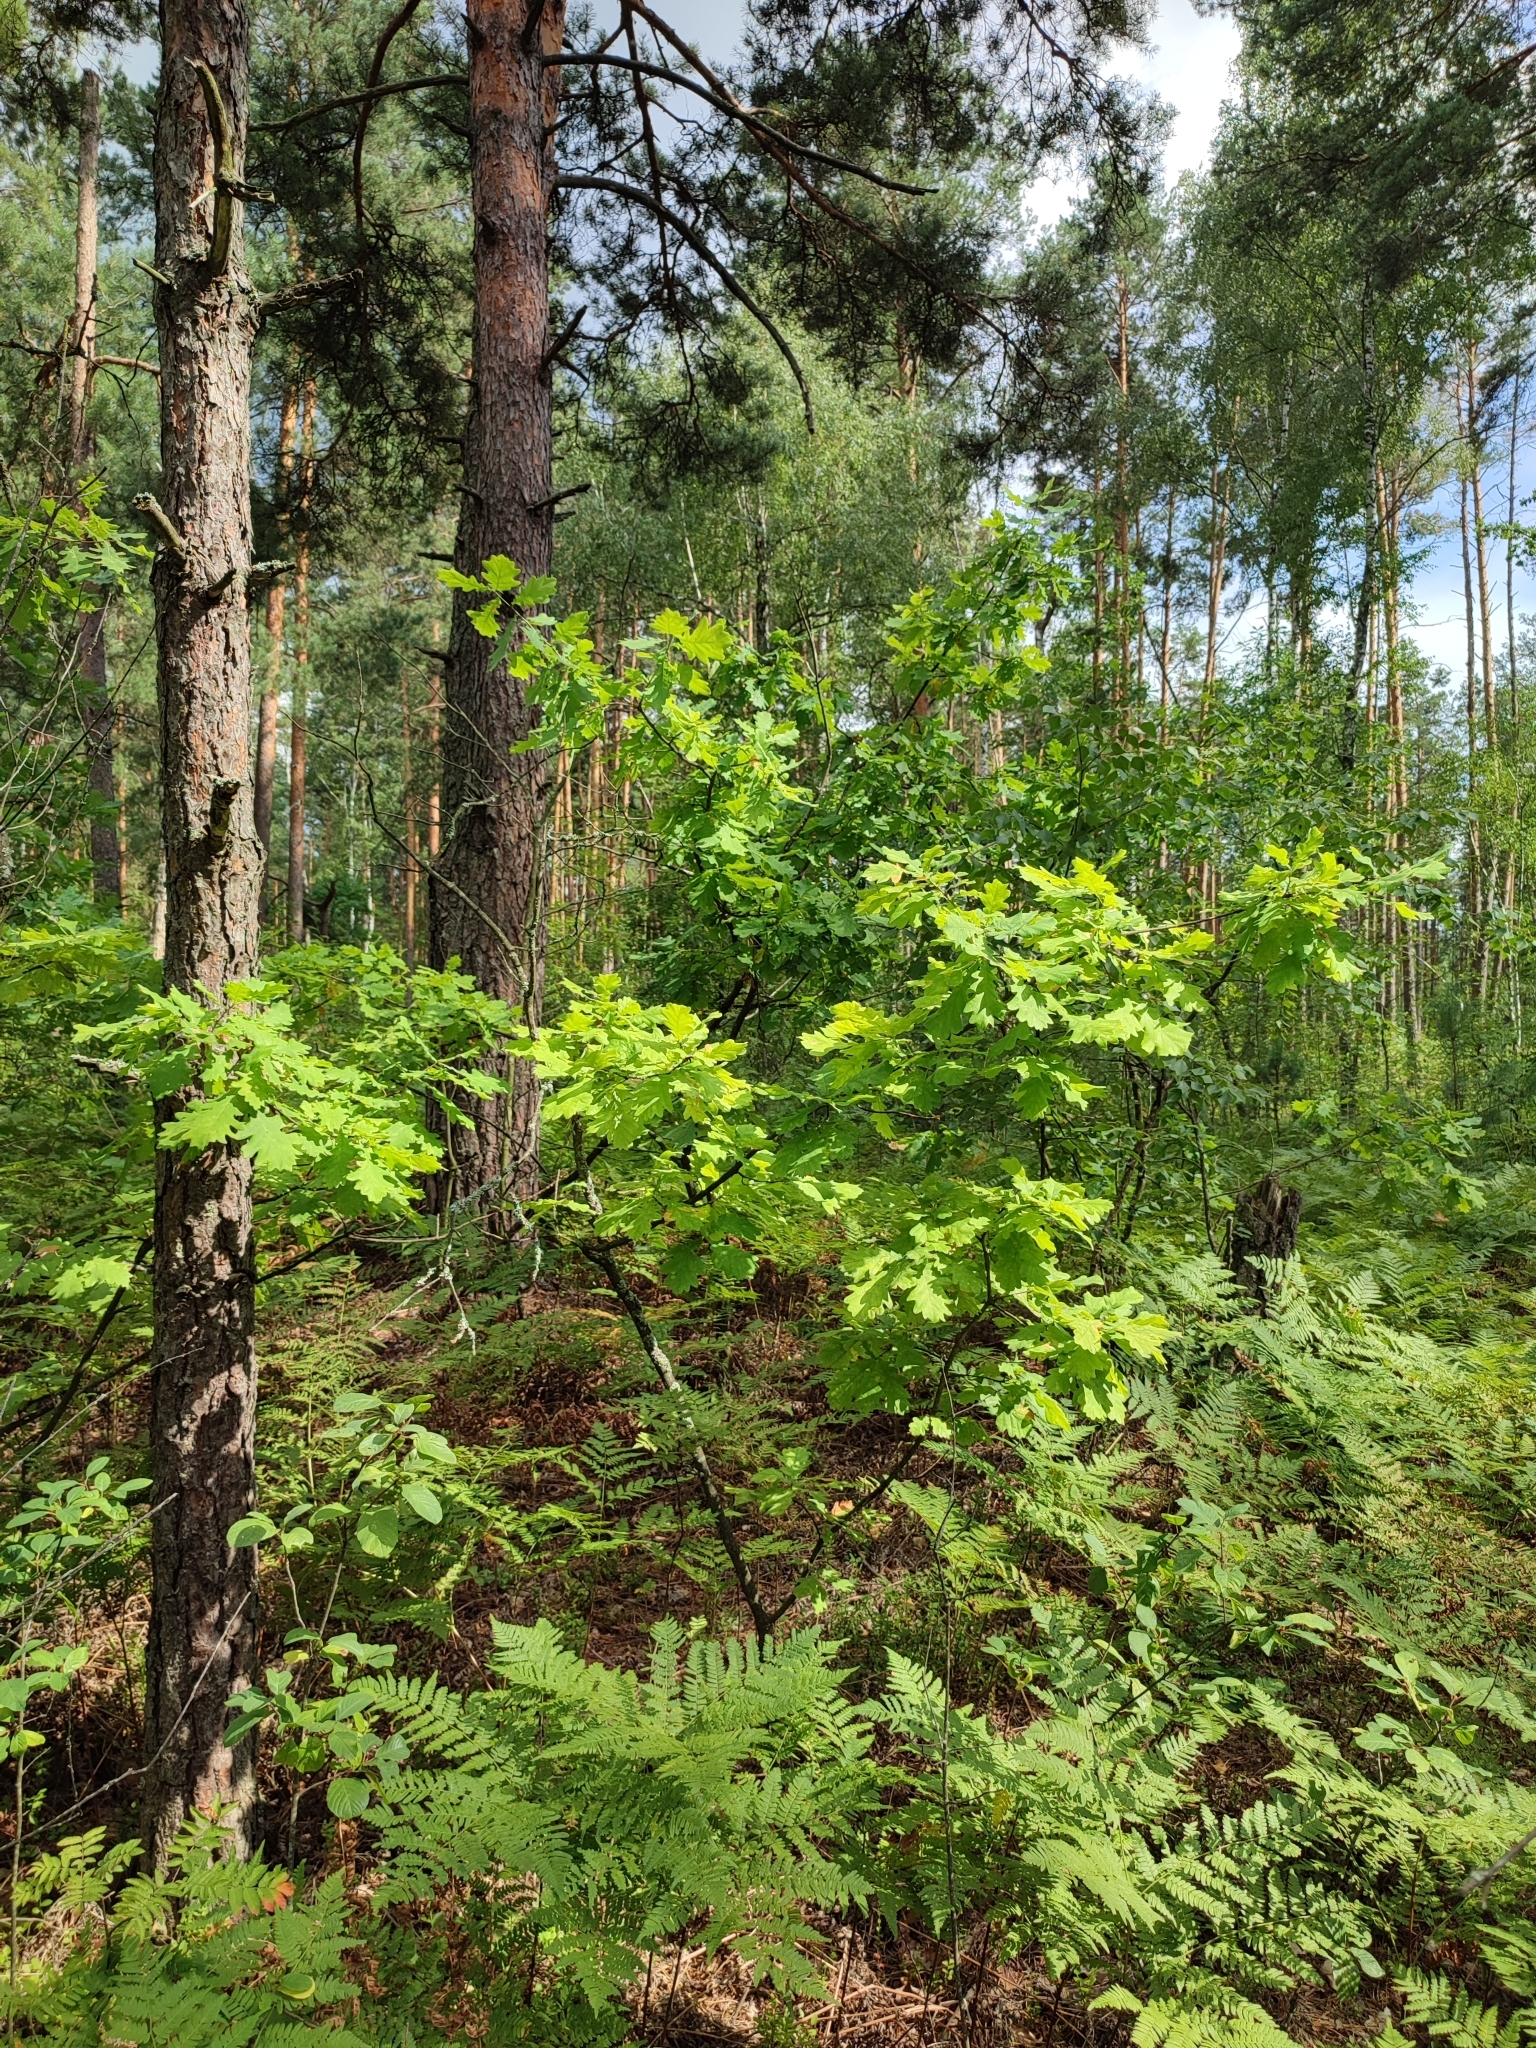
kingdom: Plantae
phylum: Tracheophyta
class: Magnoliopsida
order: Fagales
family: Fagaceae
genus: Quercus
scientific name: Quercus robur
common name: Pedunculate oak
